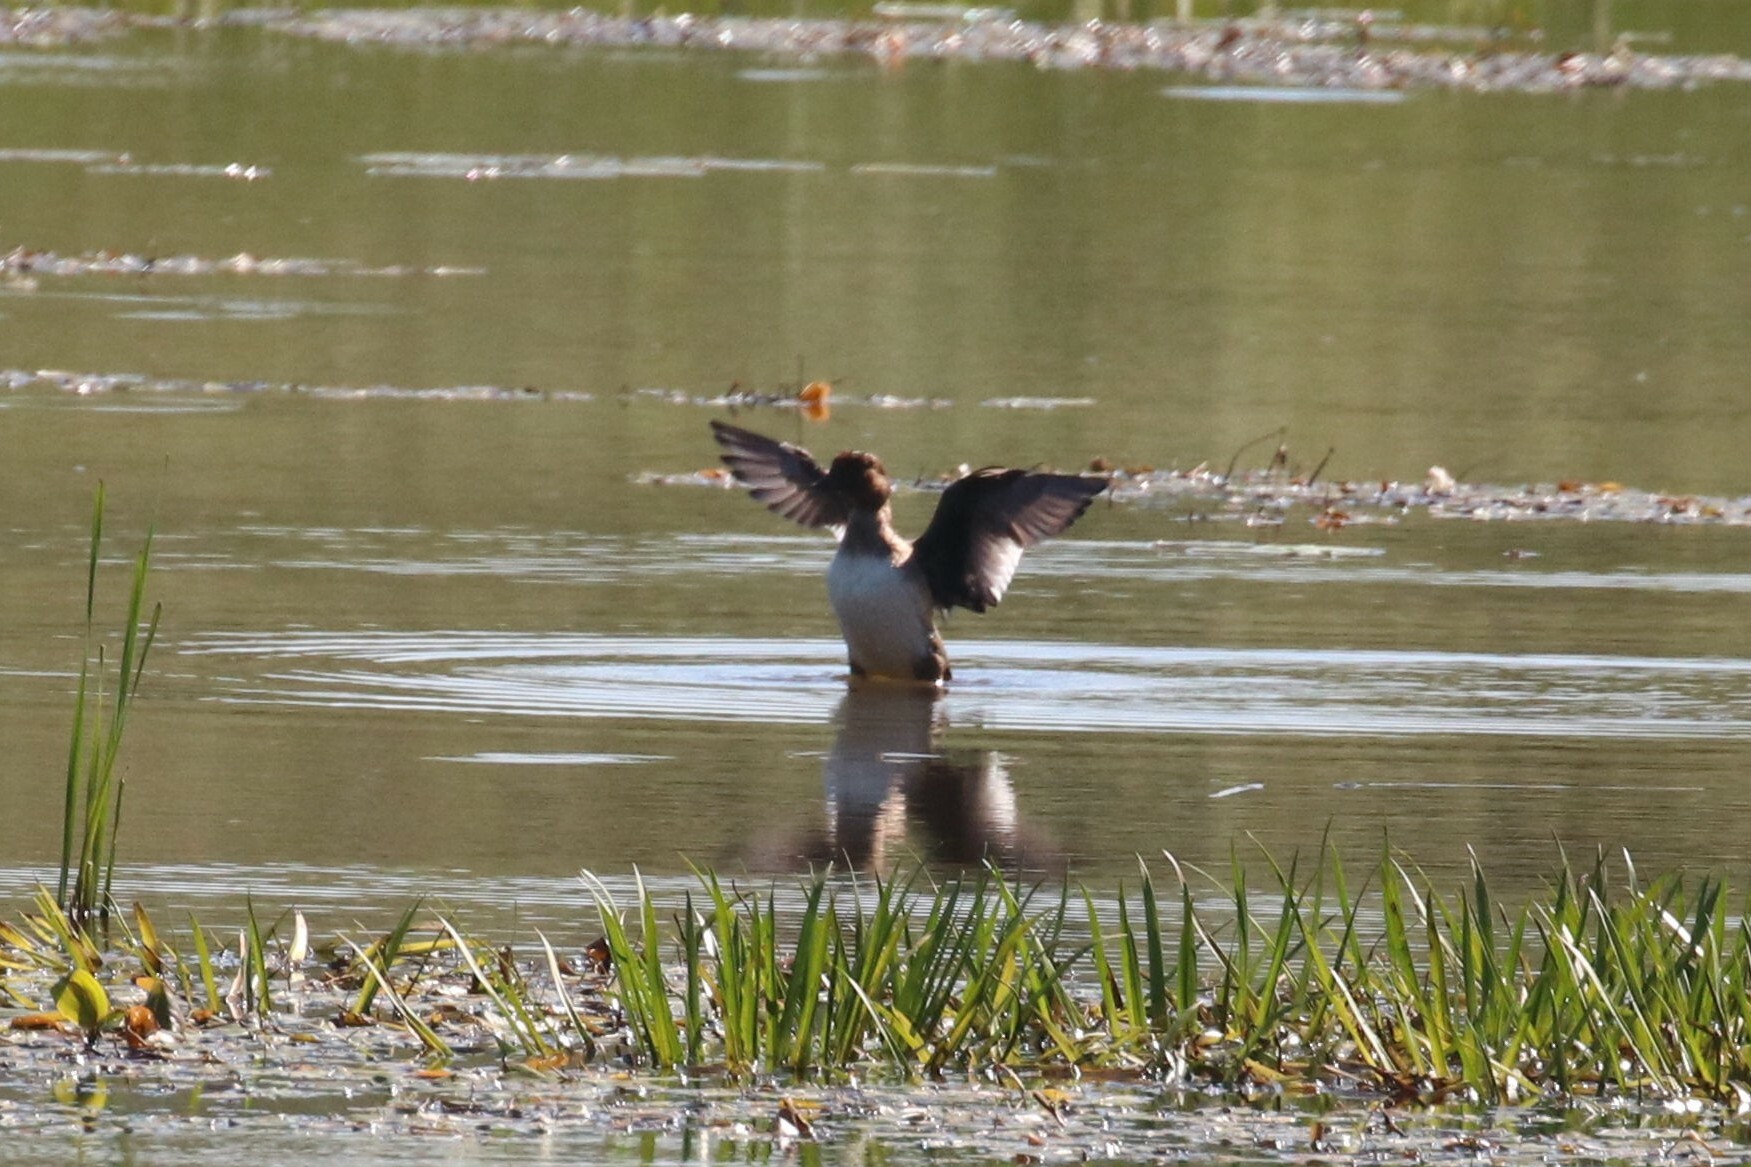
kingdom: Animalia
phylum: Chordata
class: Aves
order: Anseriformes
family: Anatidae
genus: Bucephala
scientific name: Bucephala clangula
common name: Common goldeneye
